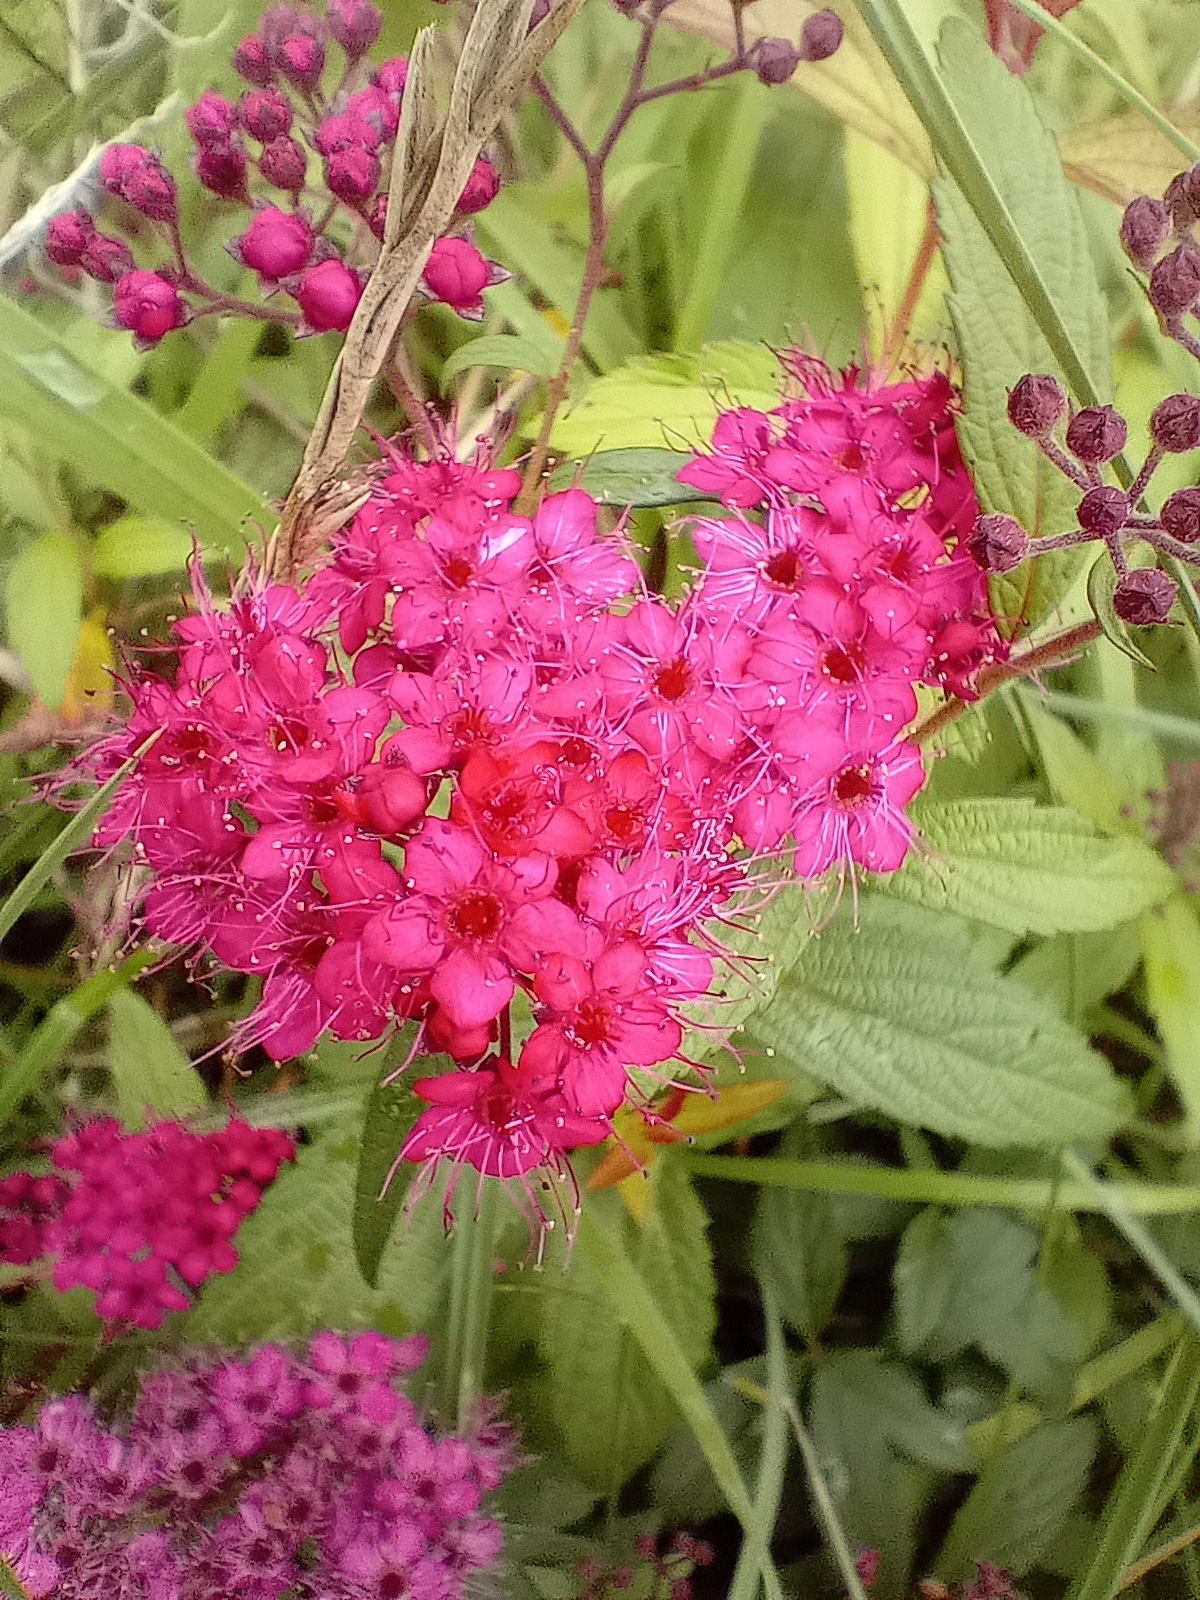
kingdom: Plantae
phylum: Tracheophyta
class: Magnoliopsida
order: Rosales
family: Rosaceae
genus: Spiraea
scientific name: Spiraea japonica
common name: Japanese spiraea
